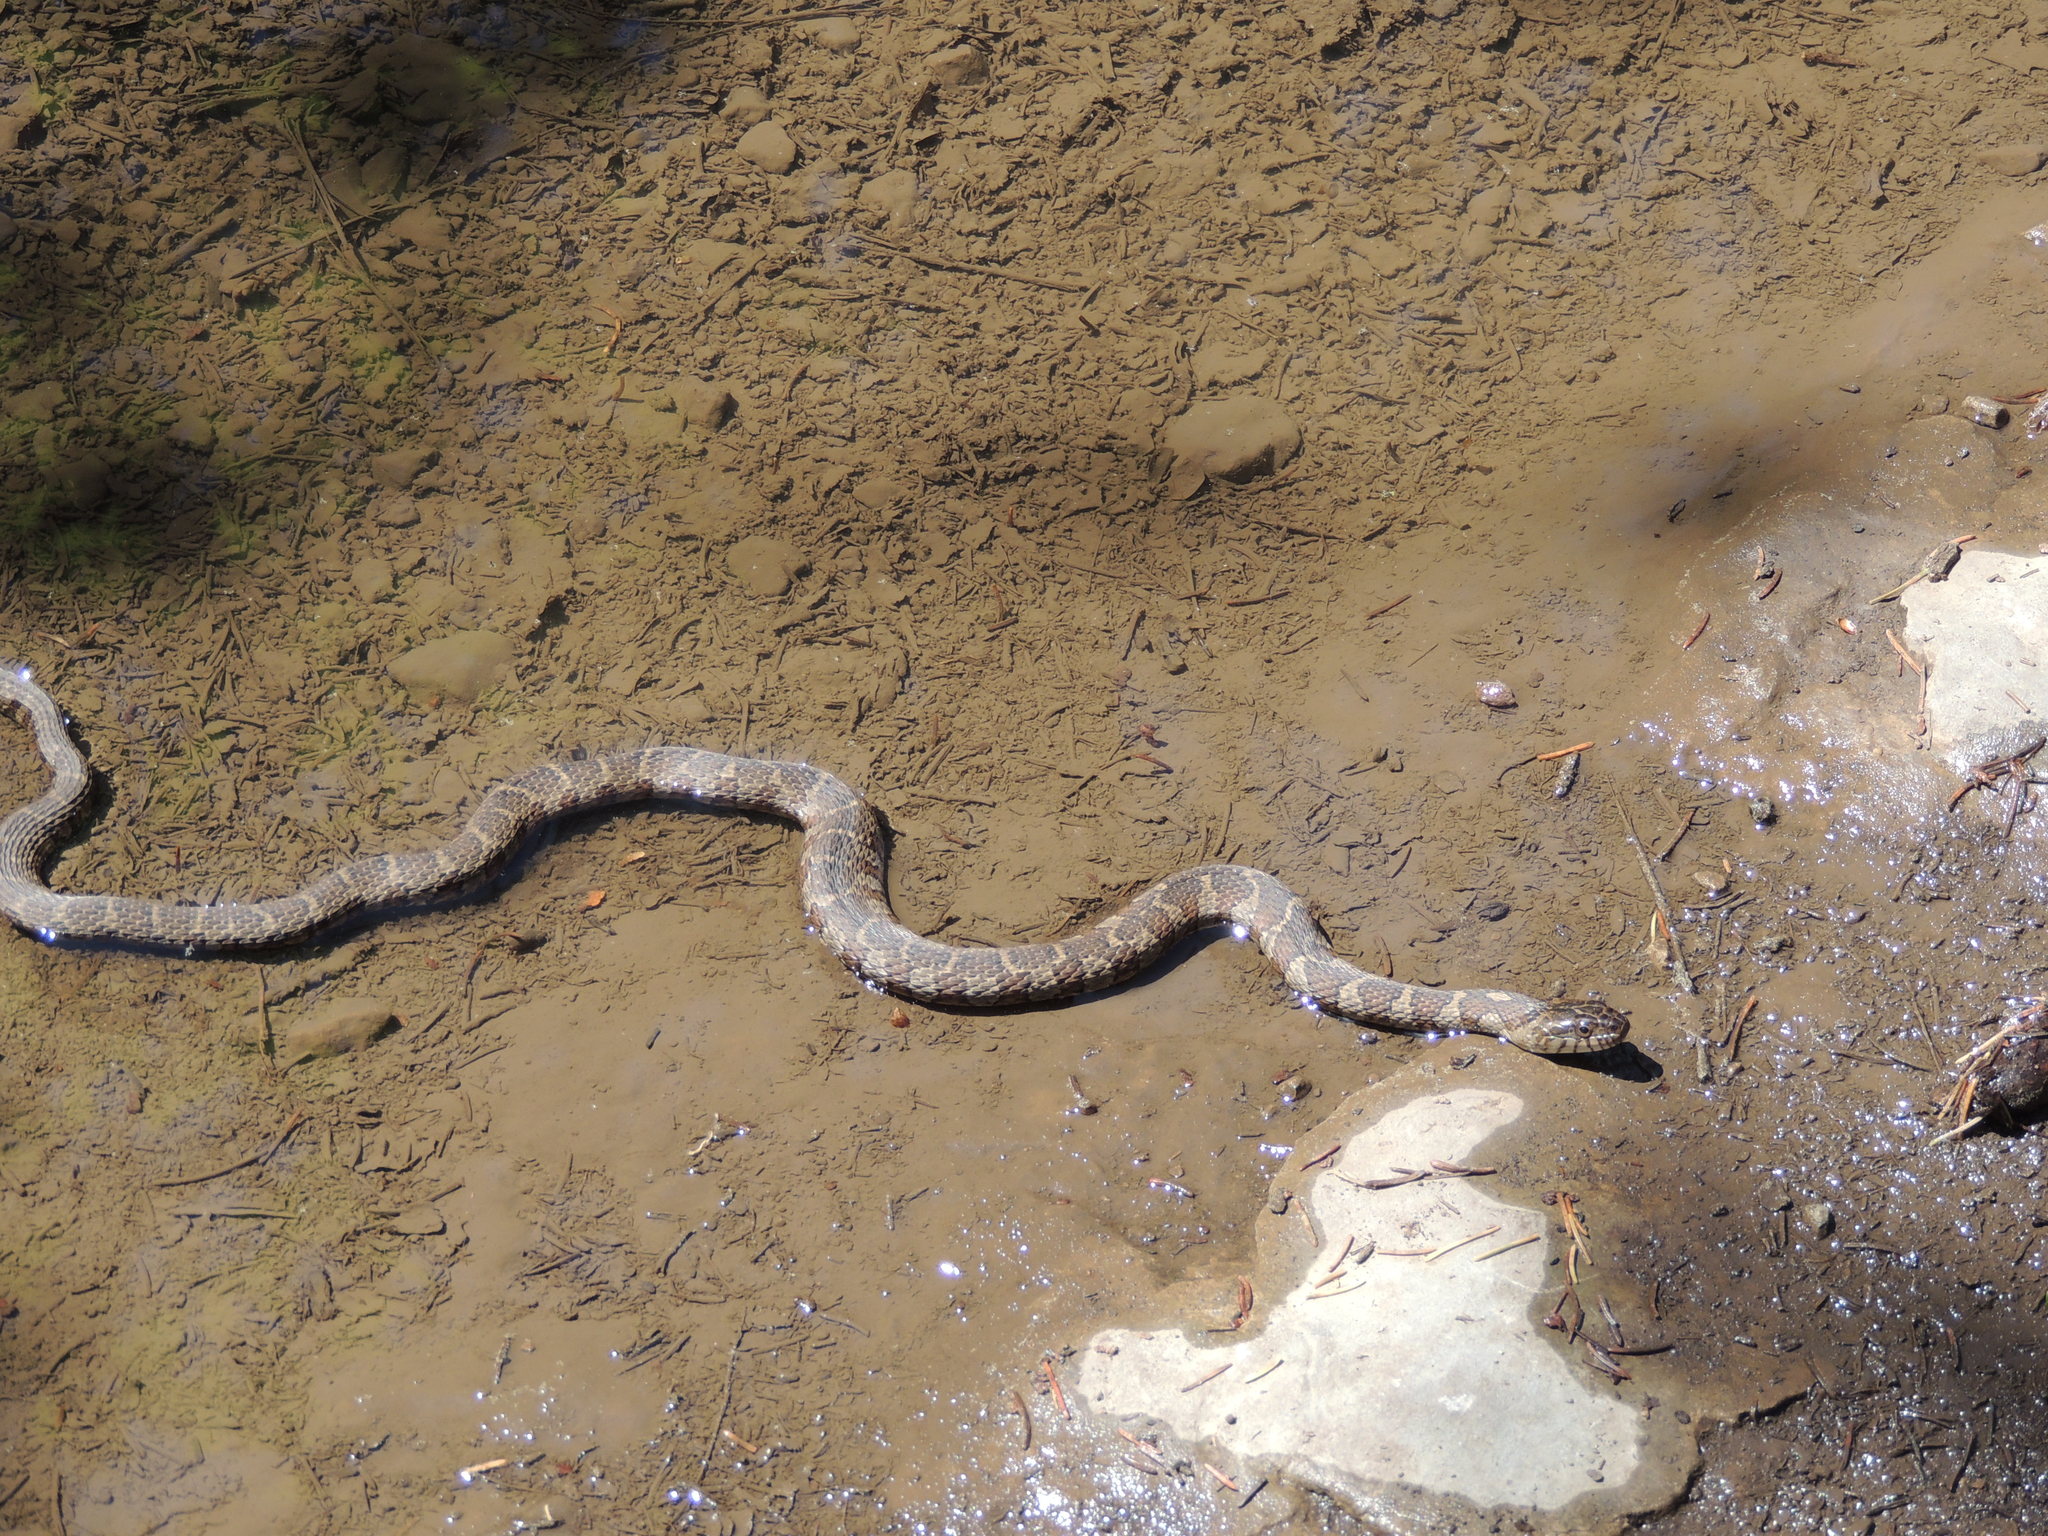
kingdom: Animalia
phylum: Chordata
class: Squamata
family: Colubridae
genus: Nerodia
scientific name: Nerodia sipedon
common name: Northern water snake
